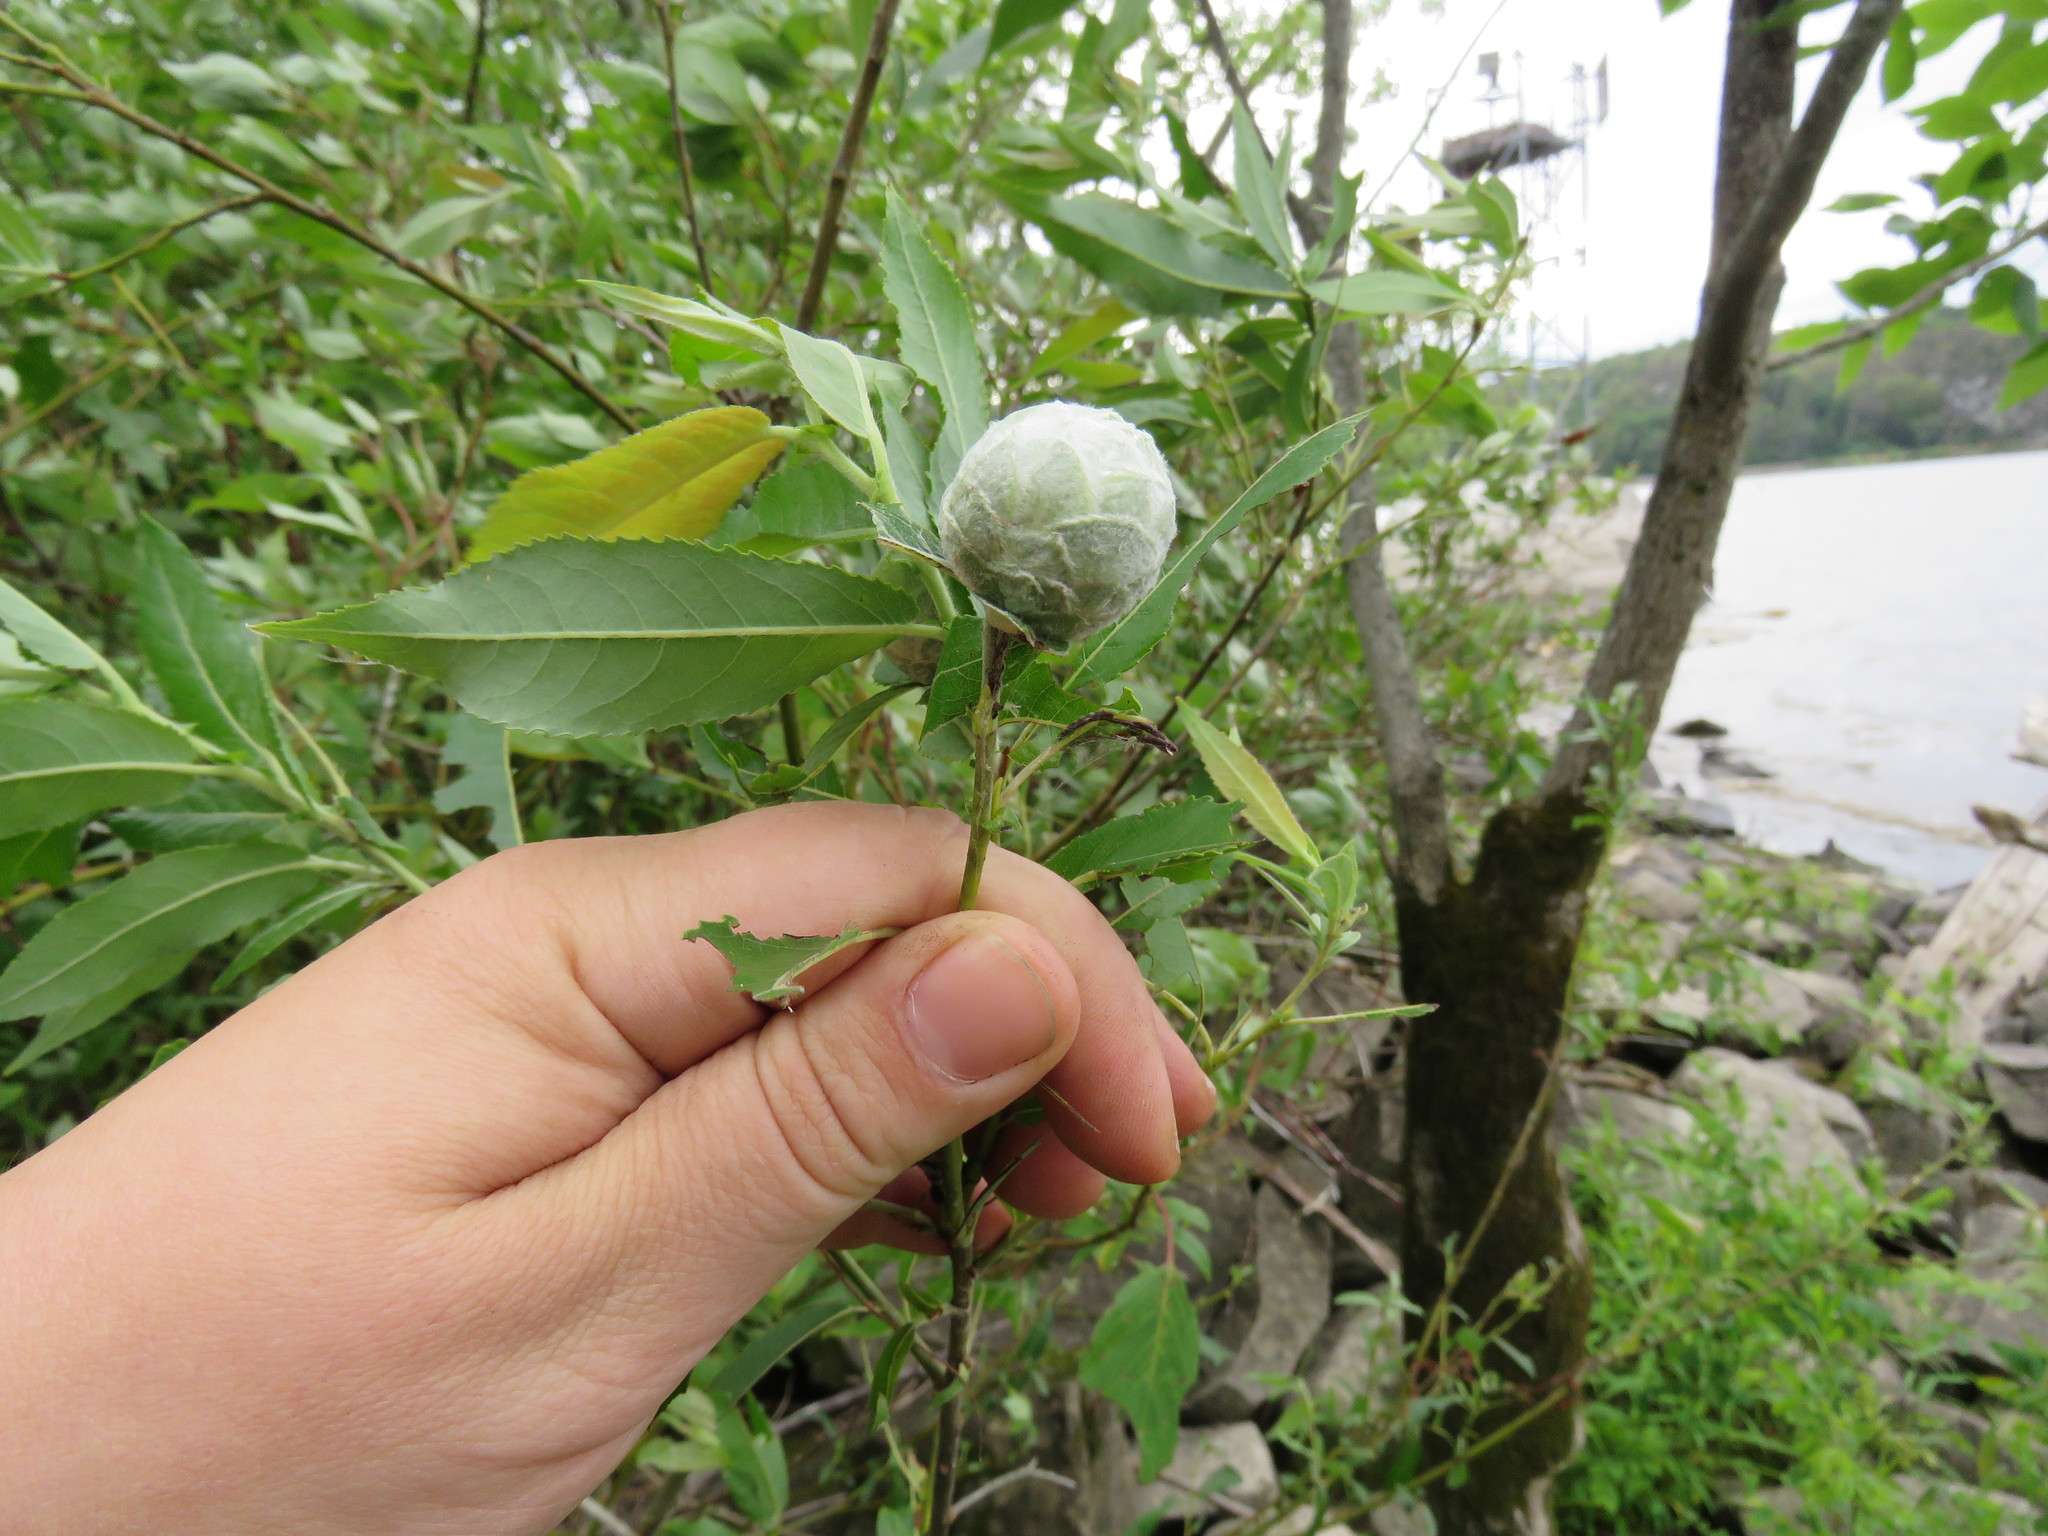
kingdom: Animalia
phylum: Arthropoda
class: Insecta
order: Diptera
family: Cecidomyiidae
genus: Rabdophaga
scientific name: Rabdophaga strobiloides
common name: Willow pinecone gall midge
